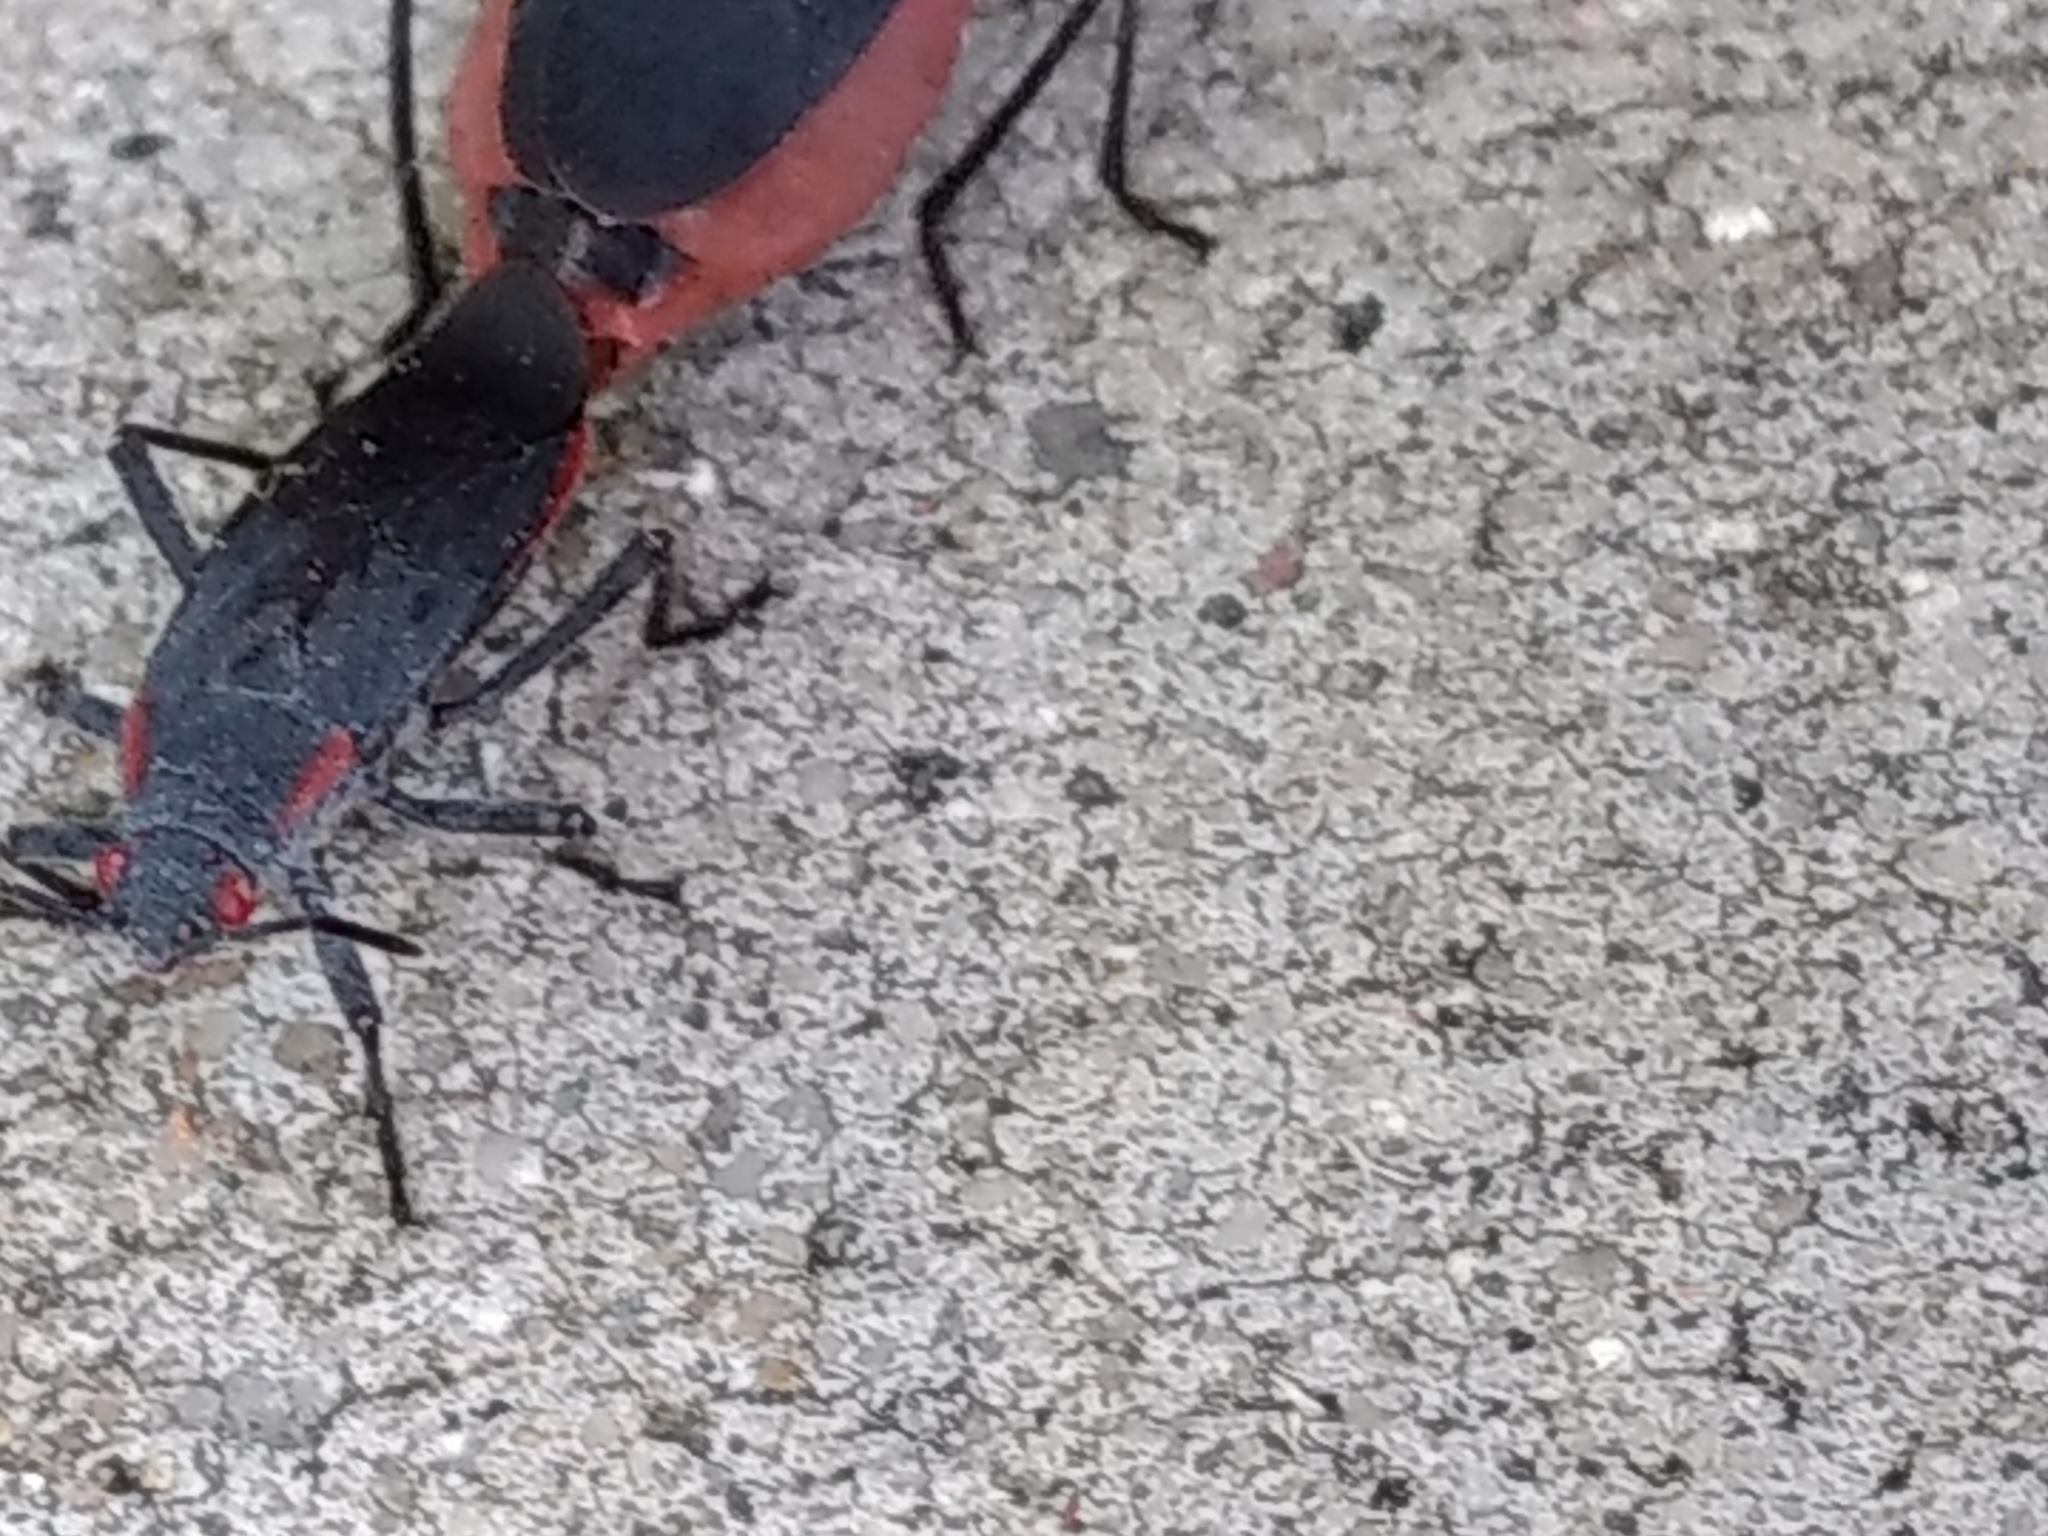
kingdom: Animalia
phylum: Arthropoda
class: Insecta
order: Hemiptera
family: Rhopalidae
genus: Jadera
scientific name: Jadera haematoloma
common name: Red-shouldered bug
